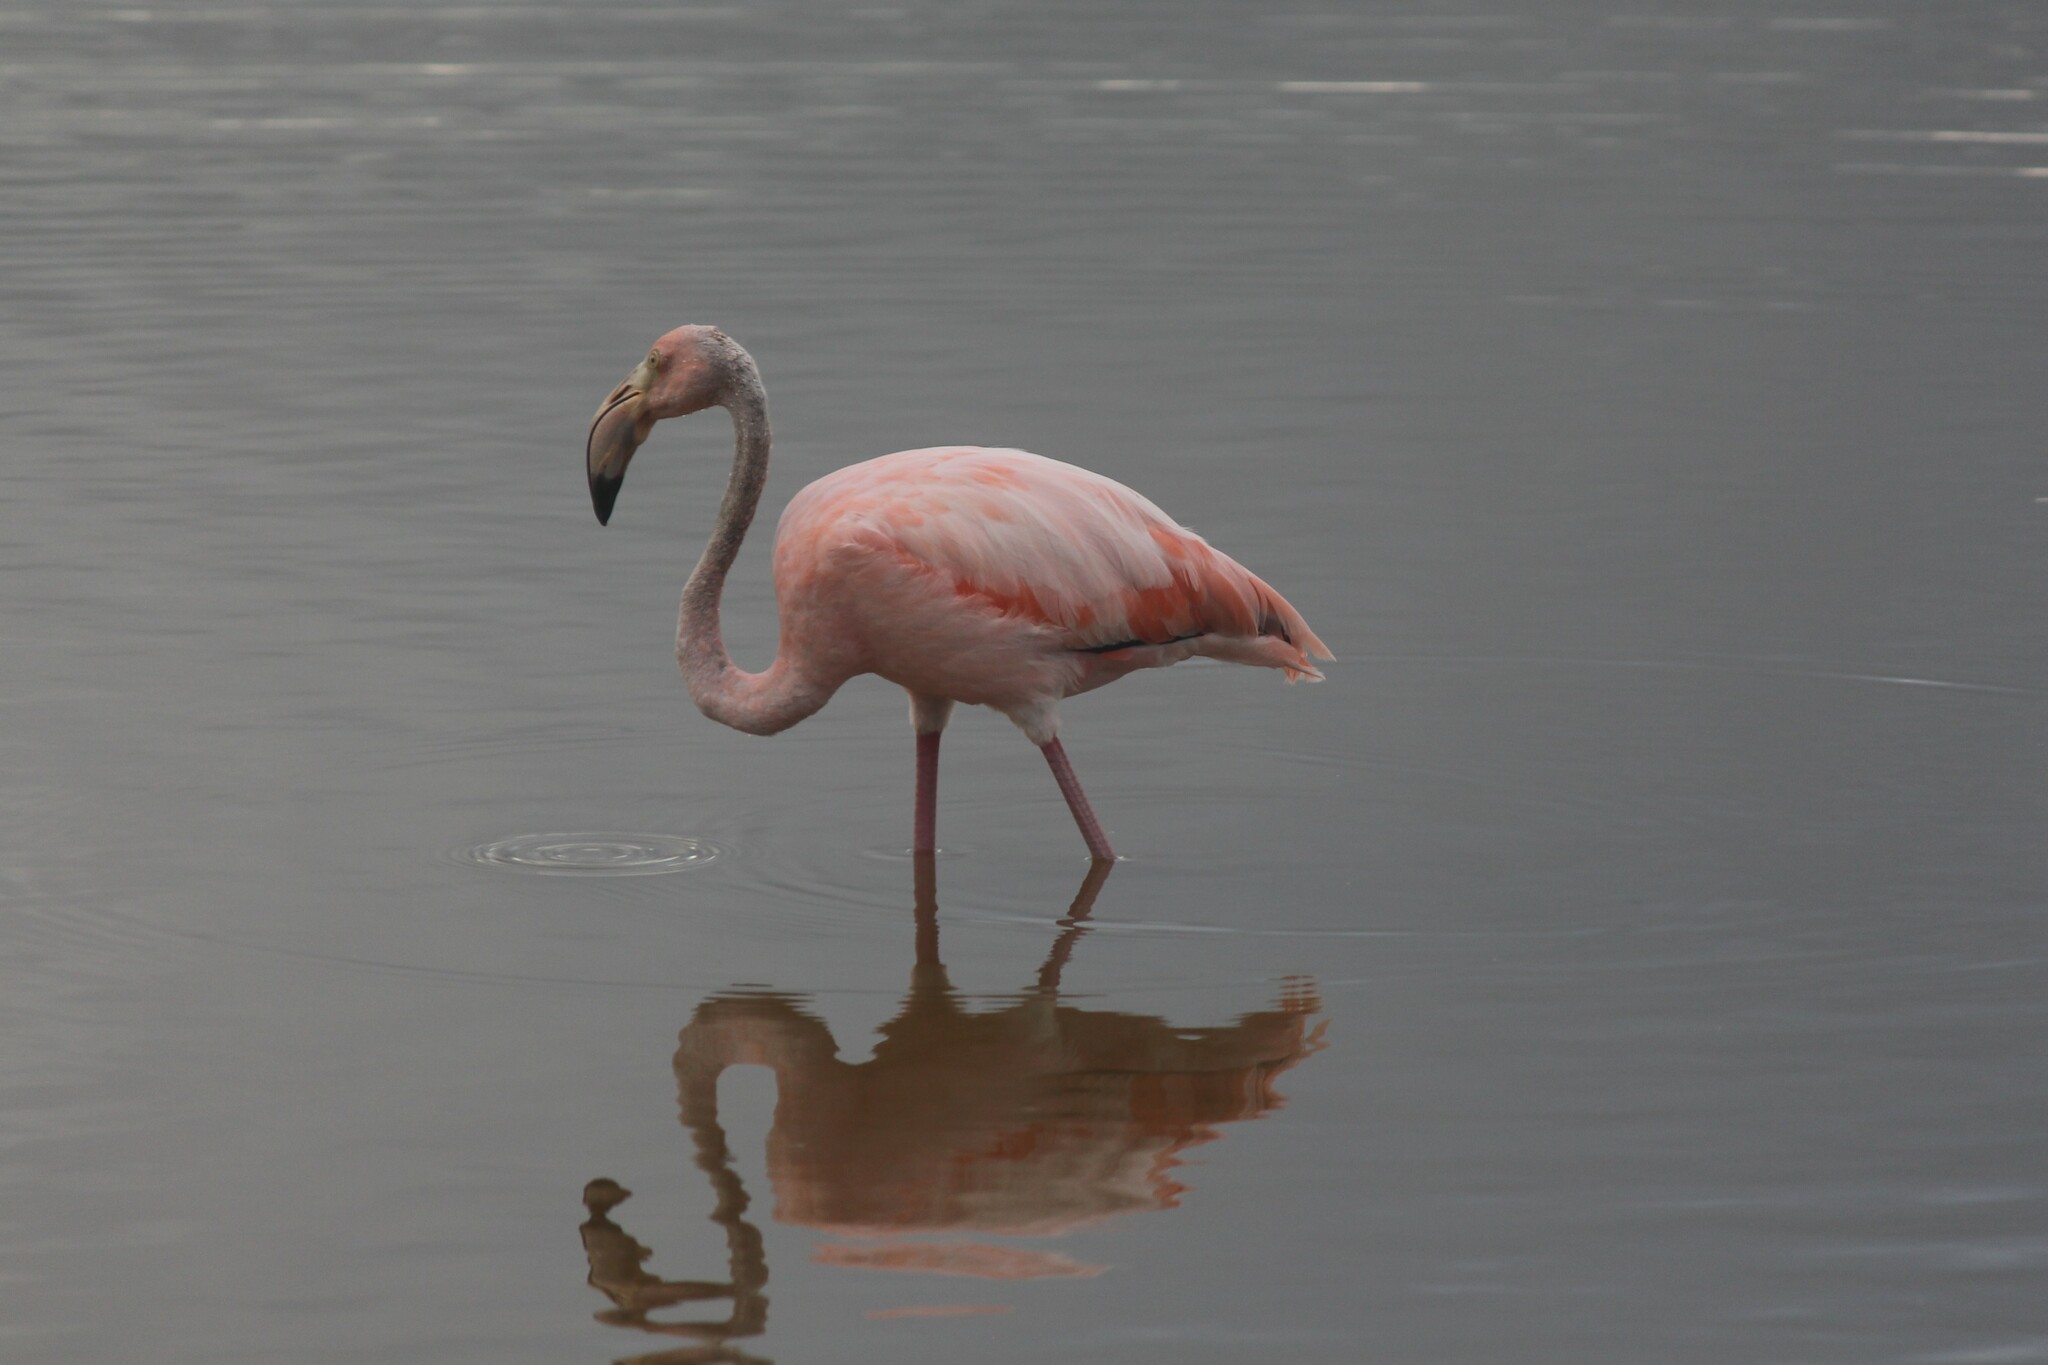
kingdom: Animalia
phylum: Chordata
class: Aves
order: Phoenicopteriformes
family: Phoenicopteridae
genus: Phoenicopterus
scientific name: Phoenicopterus ruber
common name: American flamingo
